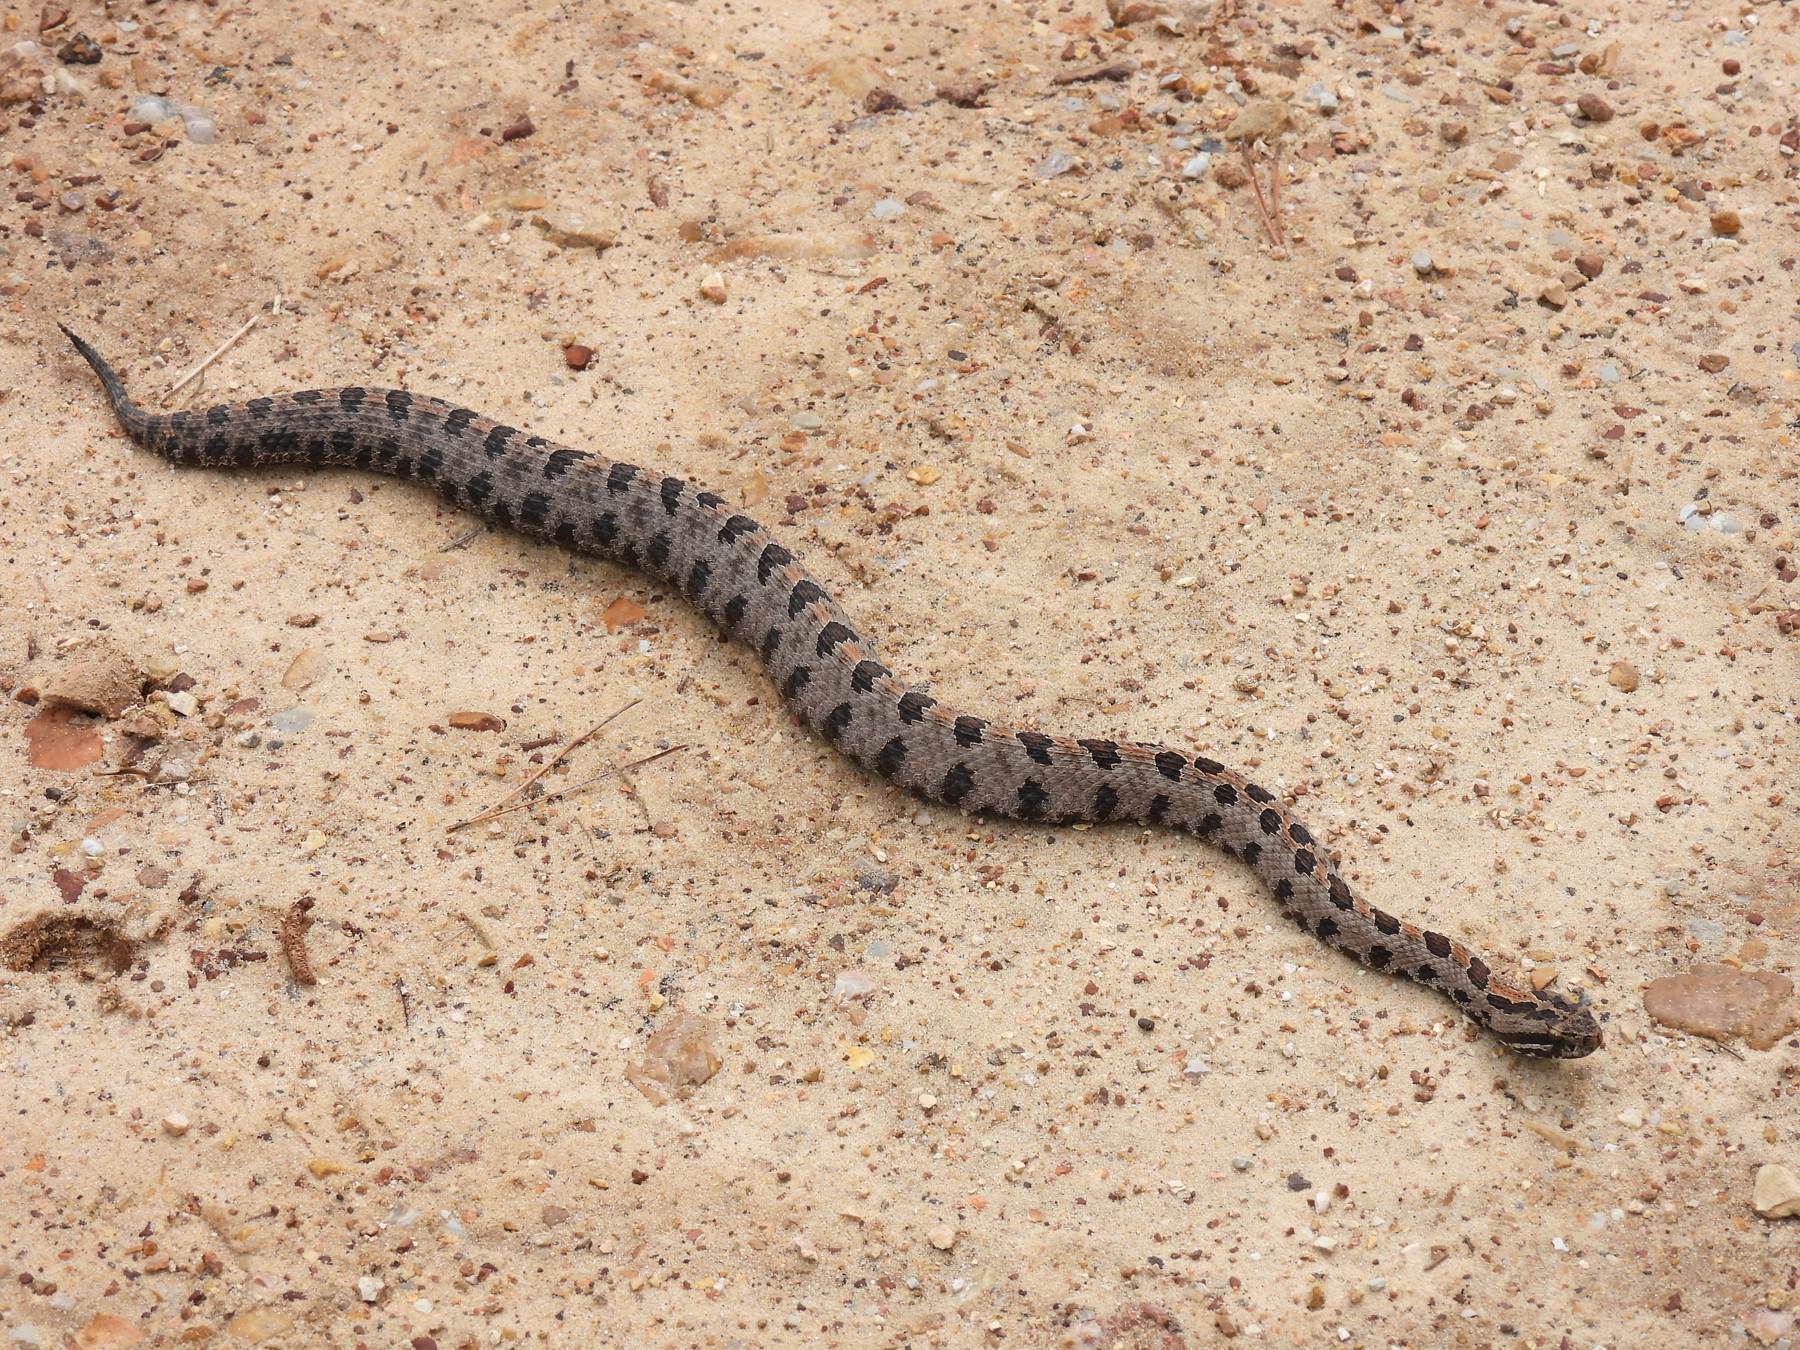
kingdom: Animalia
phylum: Chordata
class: Squamata
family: Viperidae
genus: Sistrurus
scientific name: Sistrurus miliarius
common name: Pygmy rattlesnake
